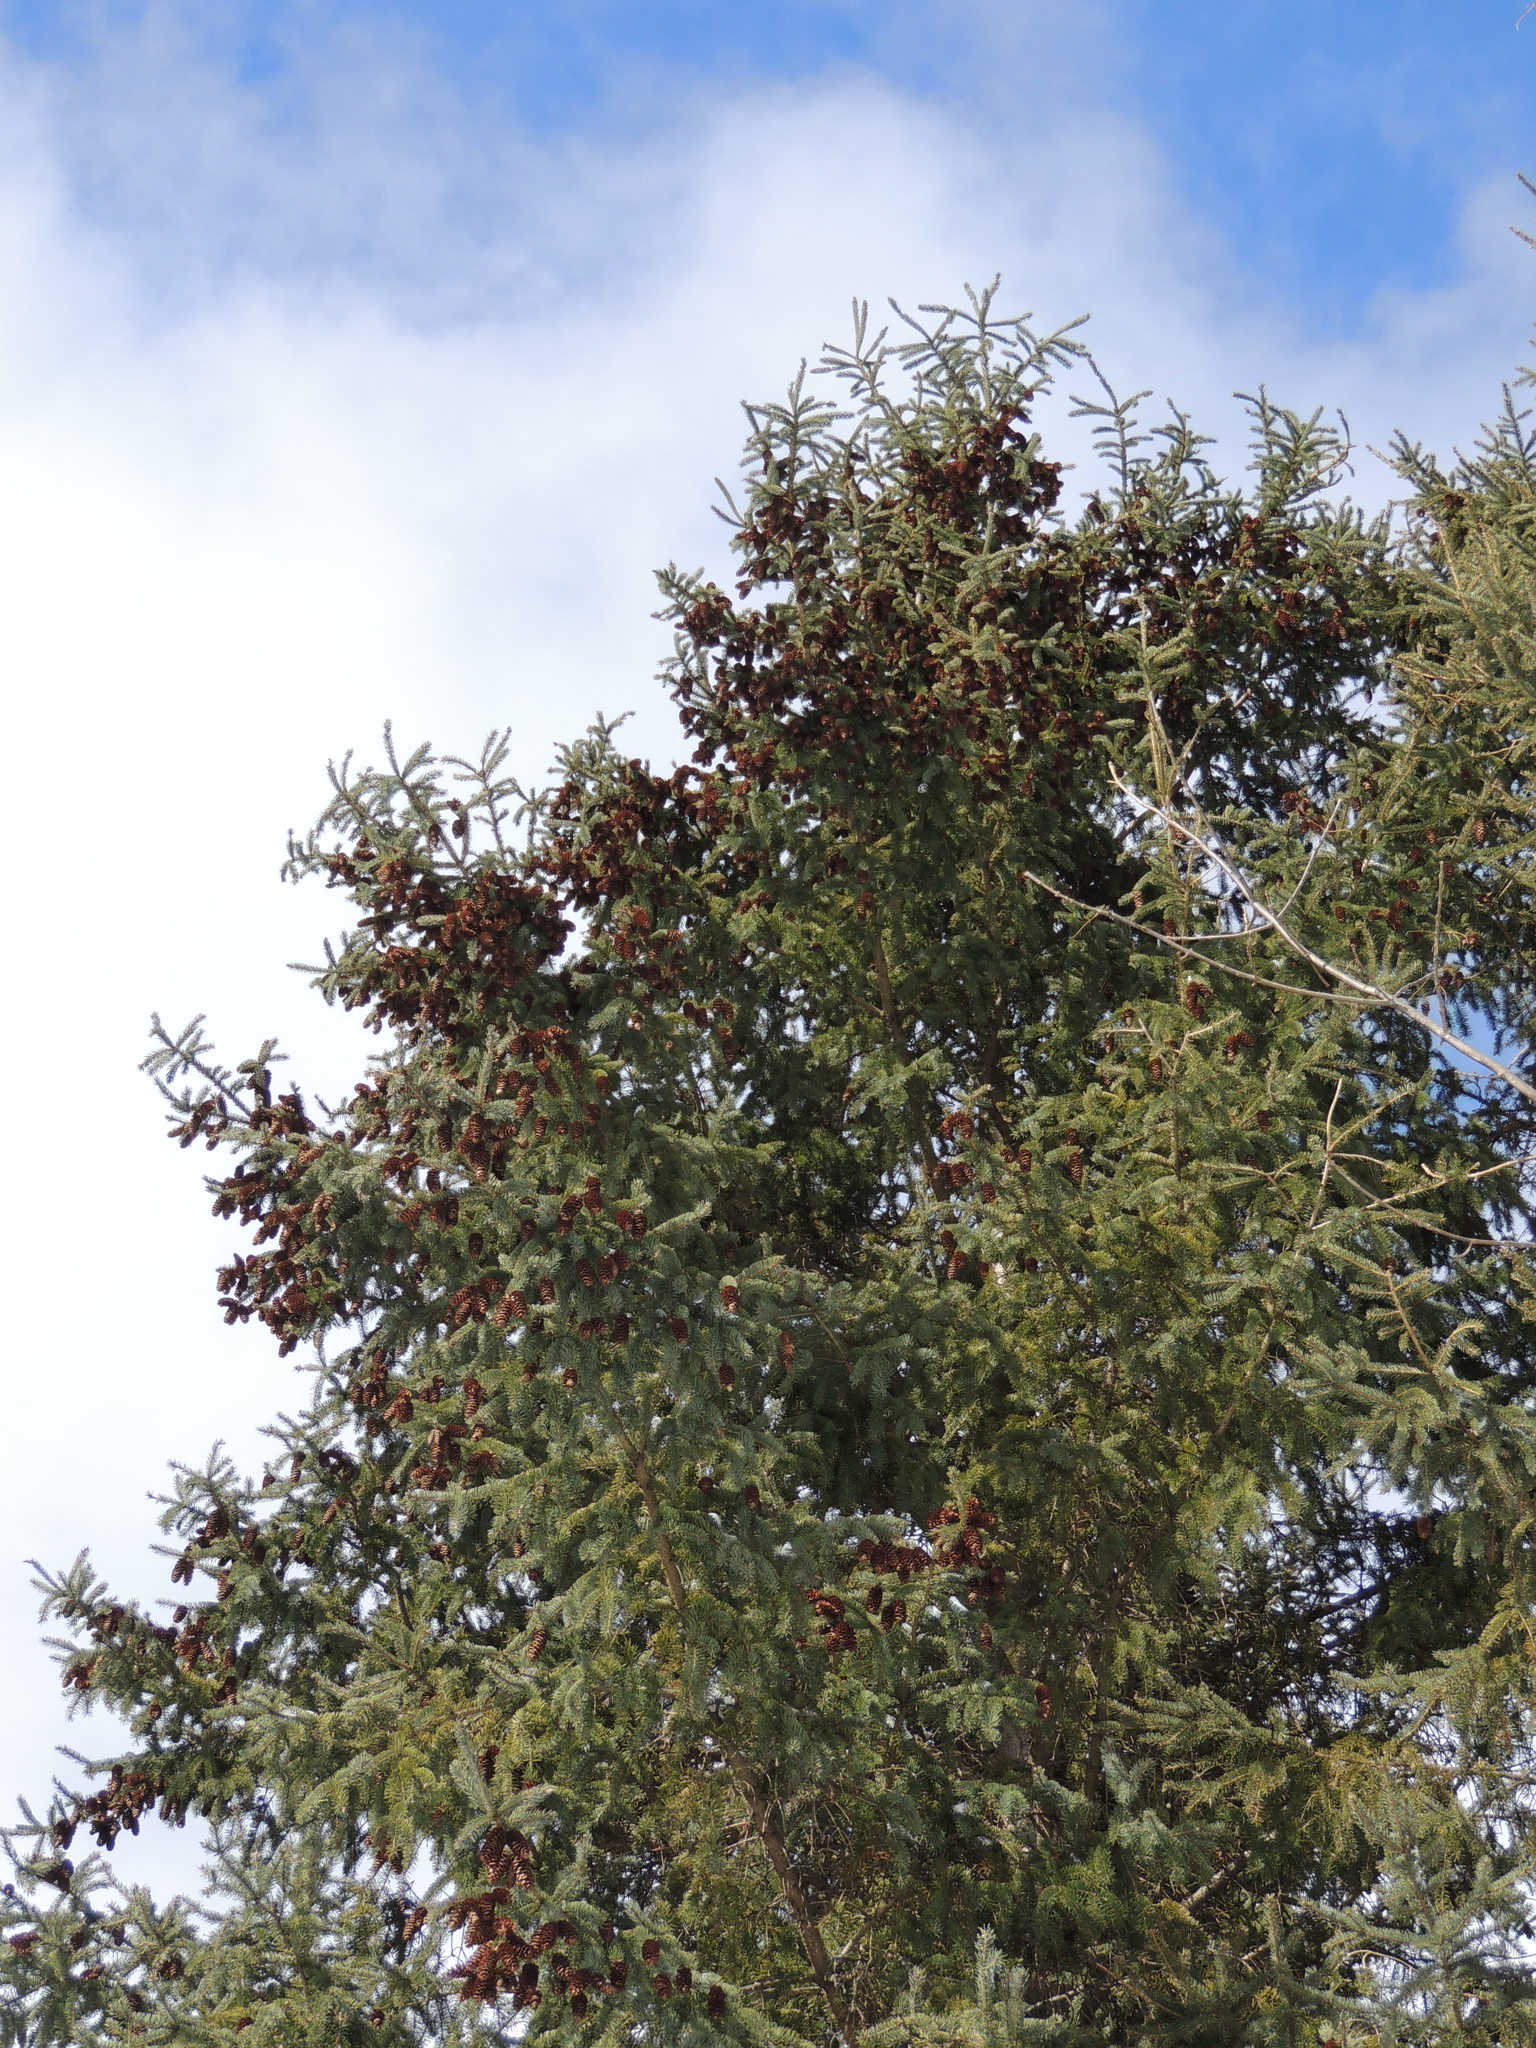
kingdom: Plantae
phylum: Tracheophyta
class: Pinopsida
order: Pinales
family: Pinaceae
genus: Picea
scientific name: Picea glauca
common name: White spruce
